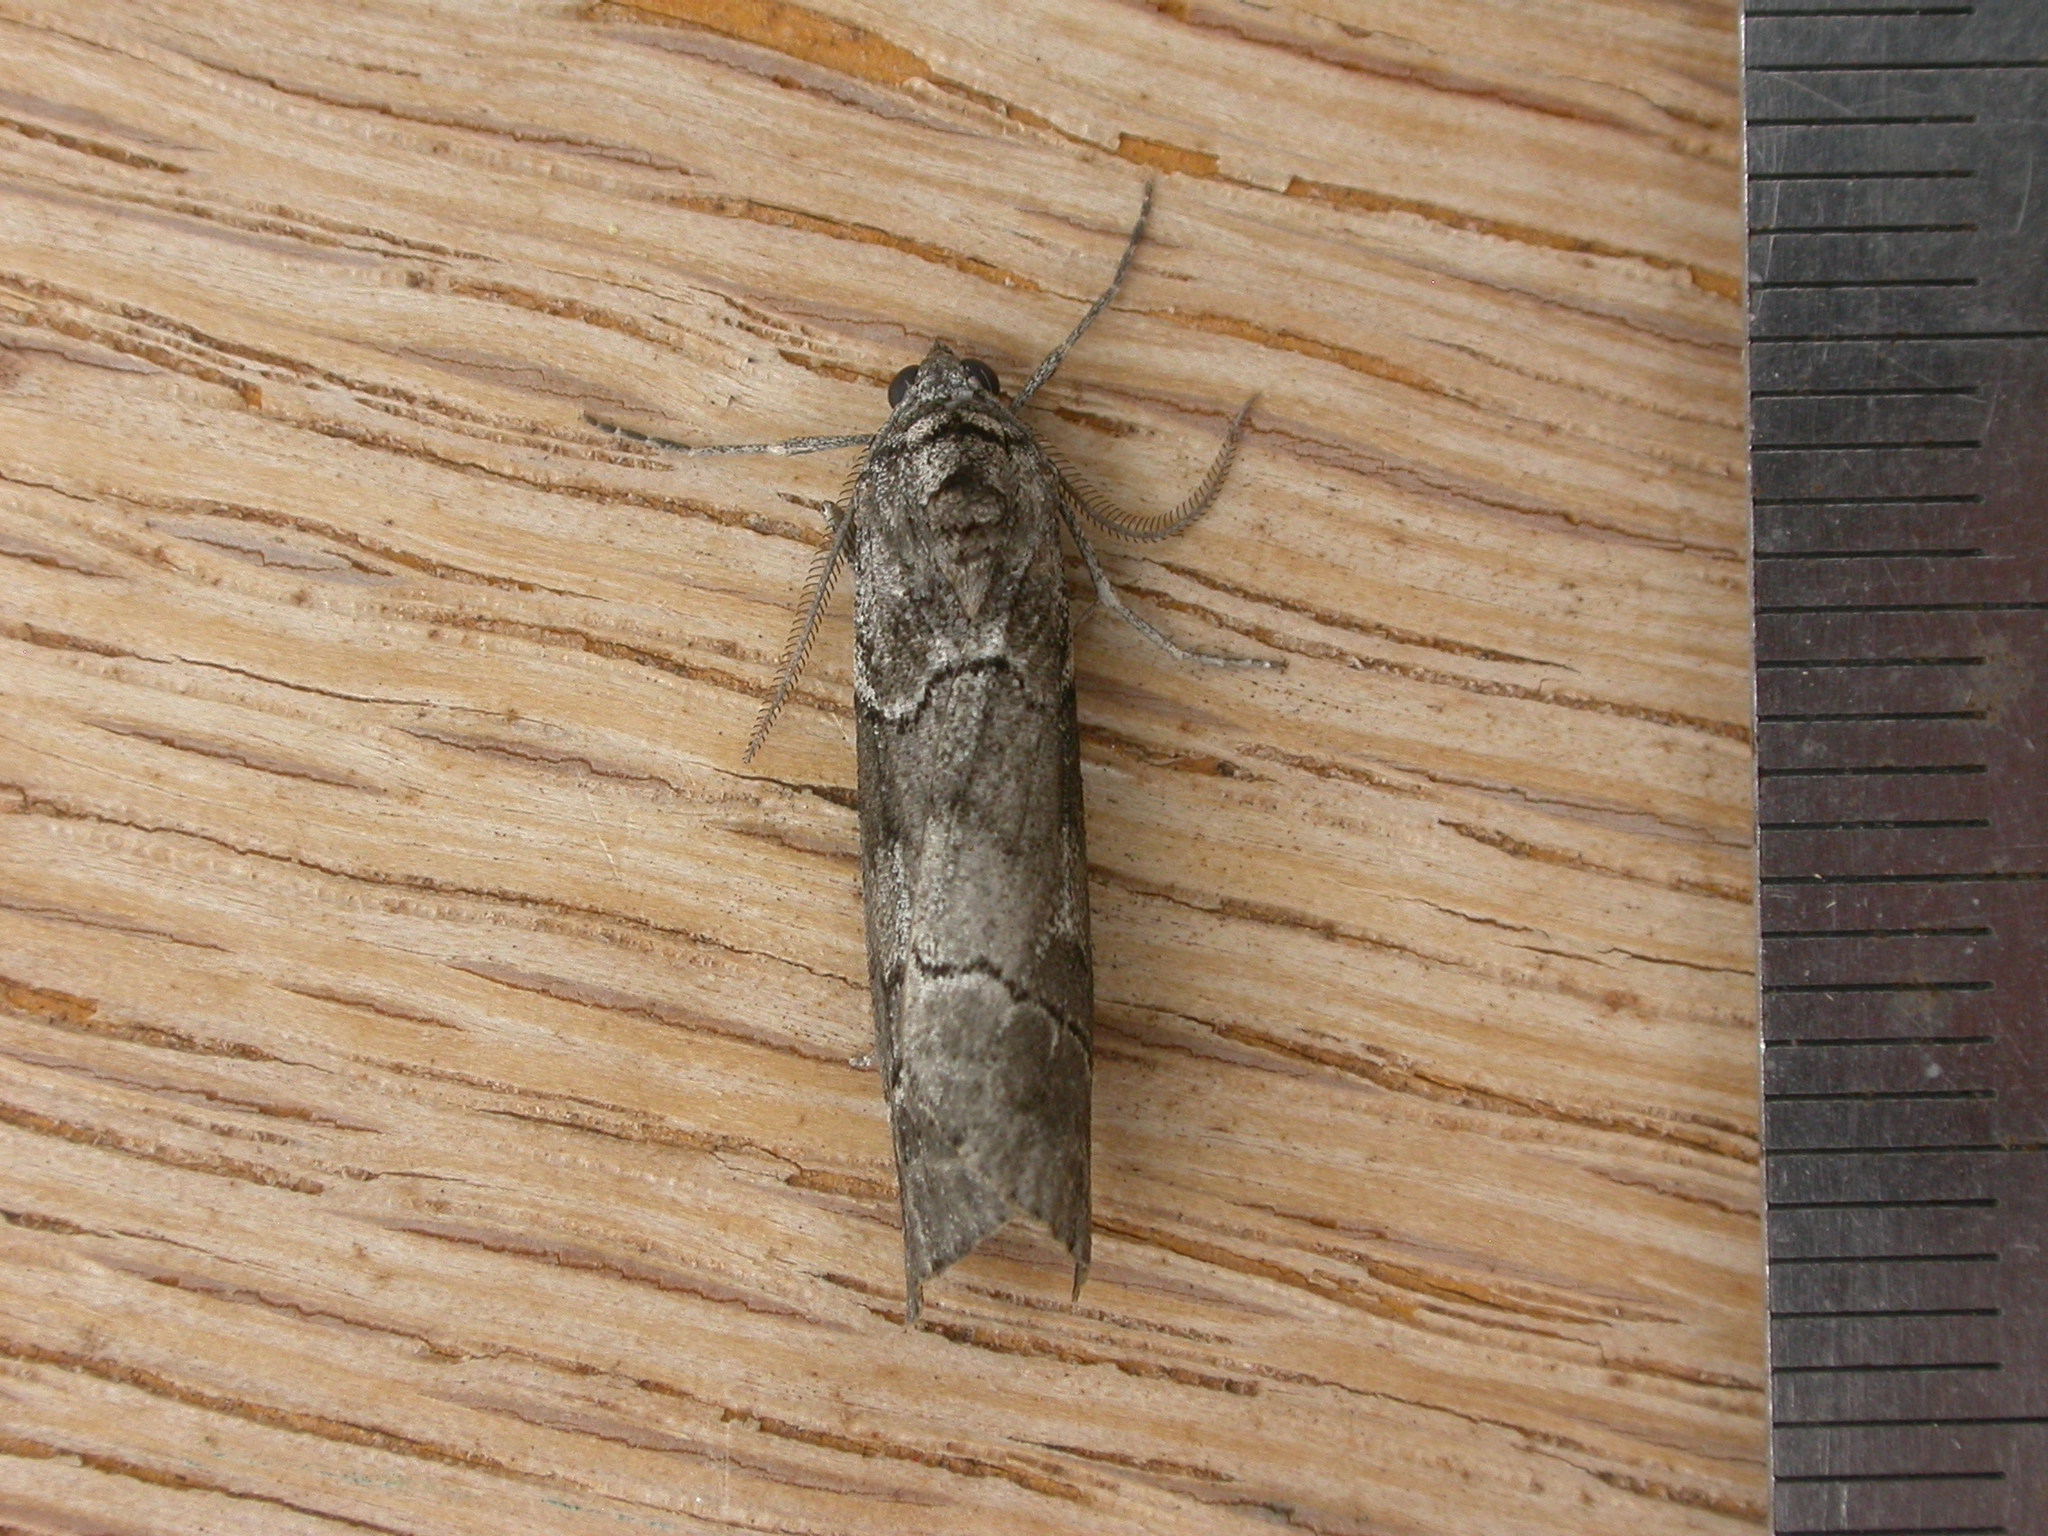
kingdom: Animalia
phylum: Arthropoda
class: Insecta
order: Lepidoptera
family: Geometridae
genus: Corula
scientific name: Corula geometroides
